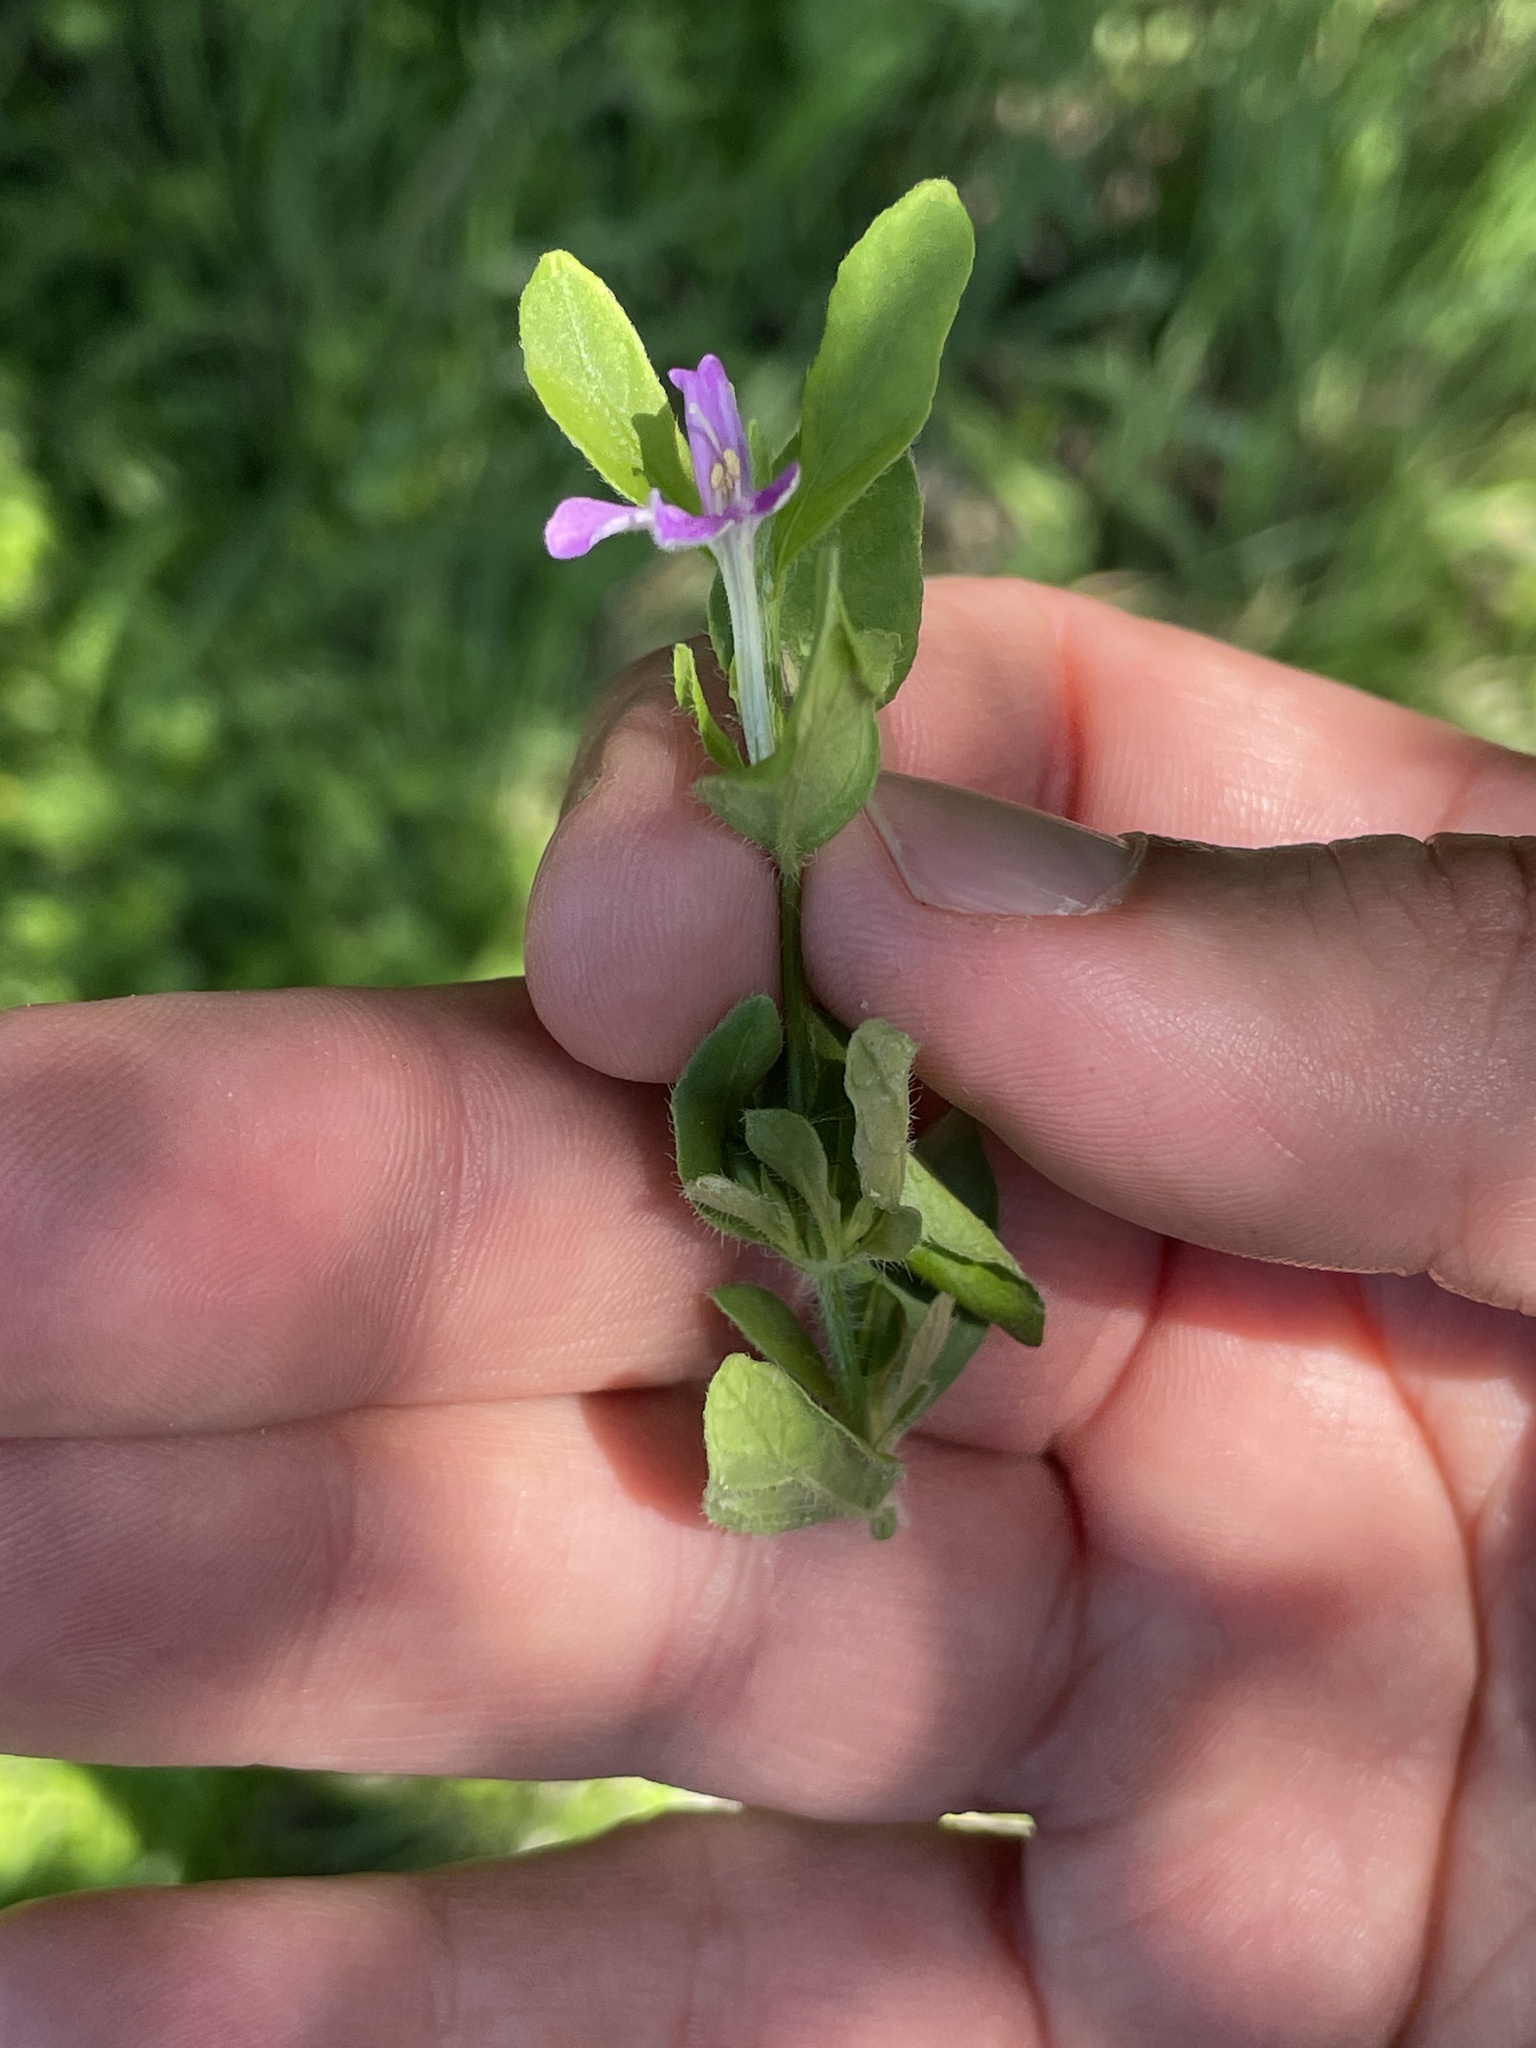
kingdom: Plantae
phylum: Tracheophyta
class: Magnoliopsida
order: Lamiales
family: Acanthaceae
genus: Justicia
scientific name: Justicia pilosella
